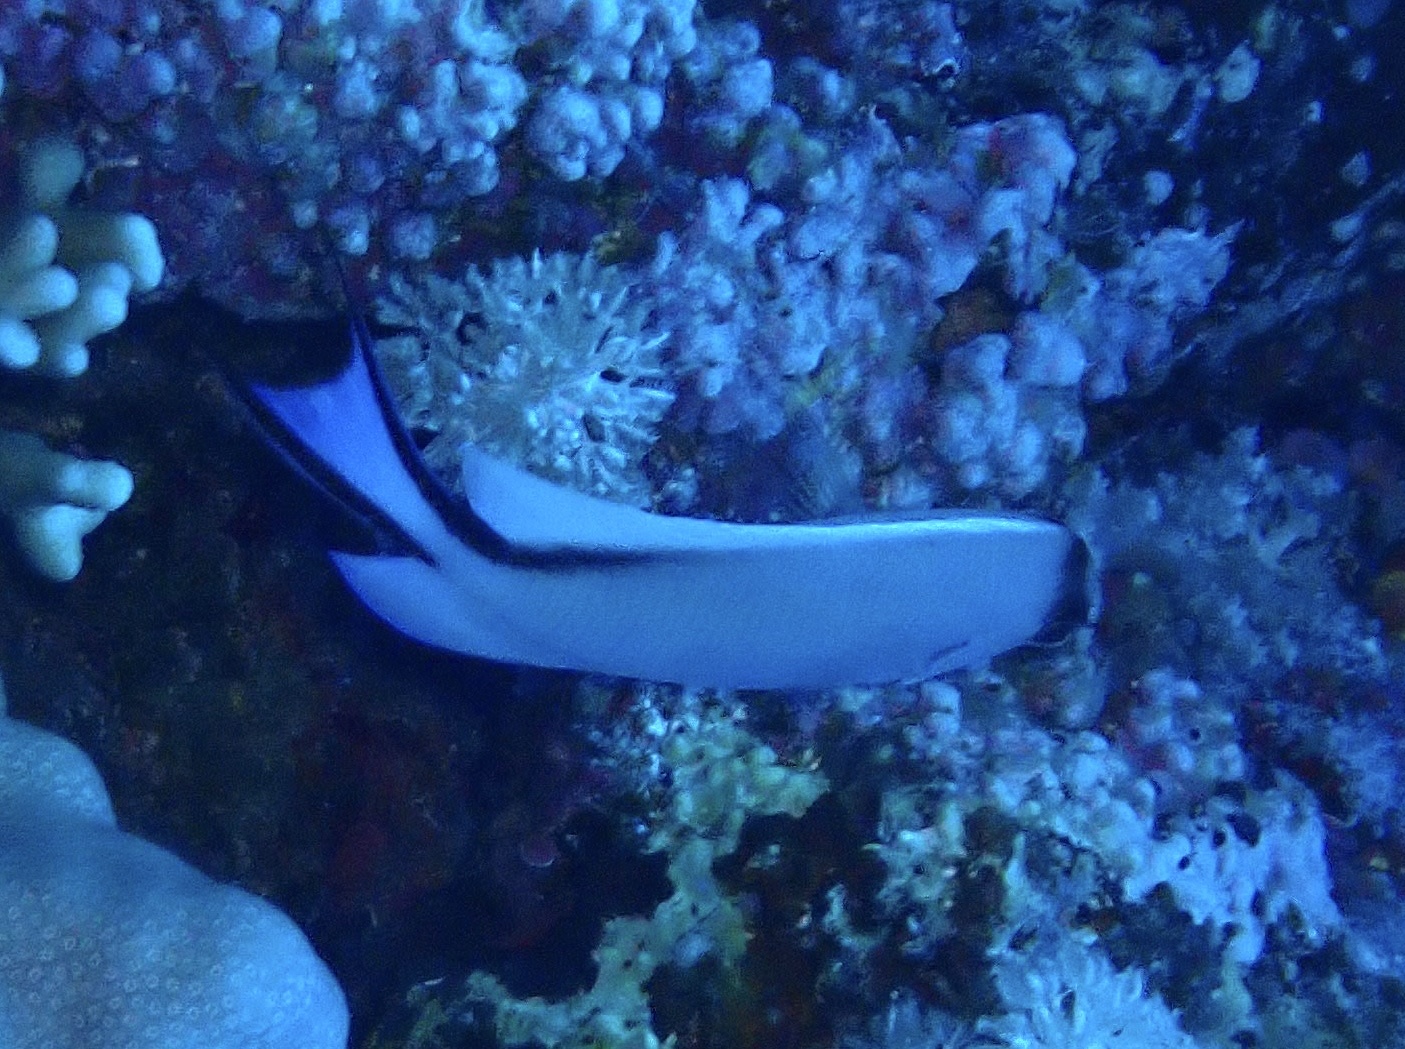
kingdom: Animalia
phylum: Chordata
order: Perciformes
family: Pomacanthidae
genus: Genicanthus
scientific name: Genicanthus caudovittatus
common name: Lyretail angelfish
